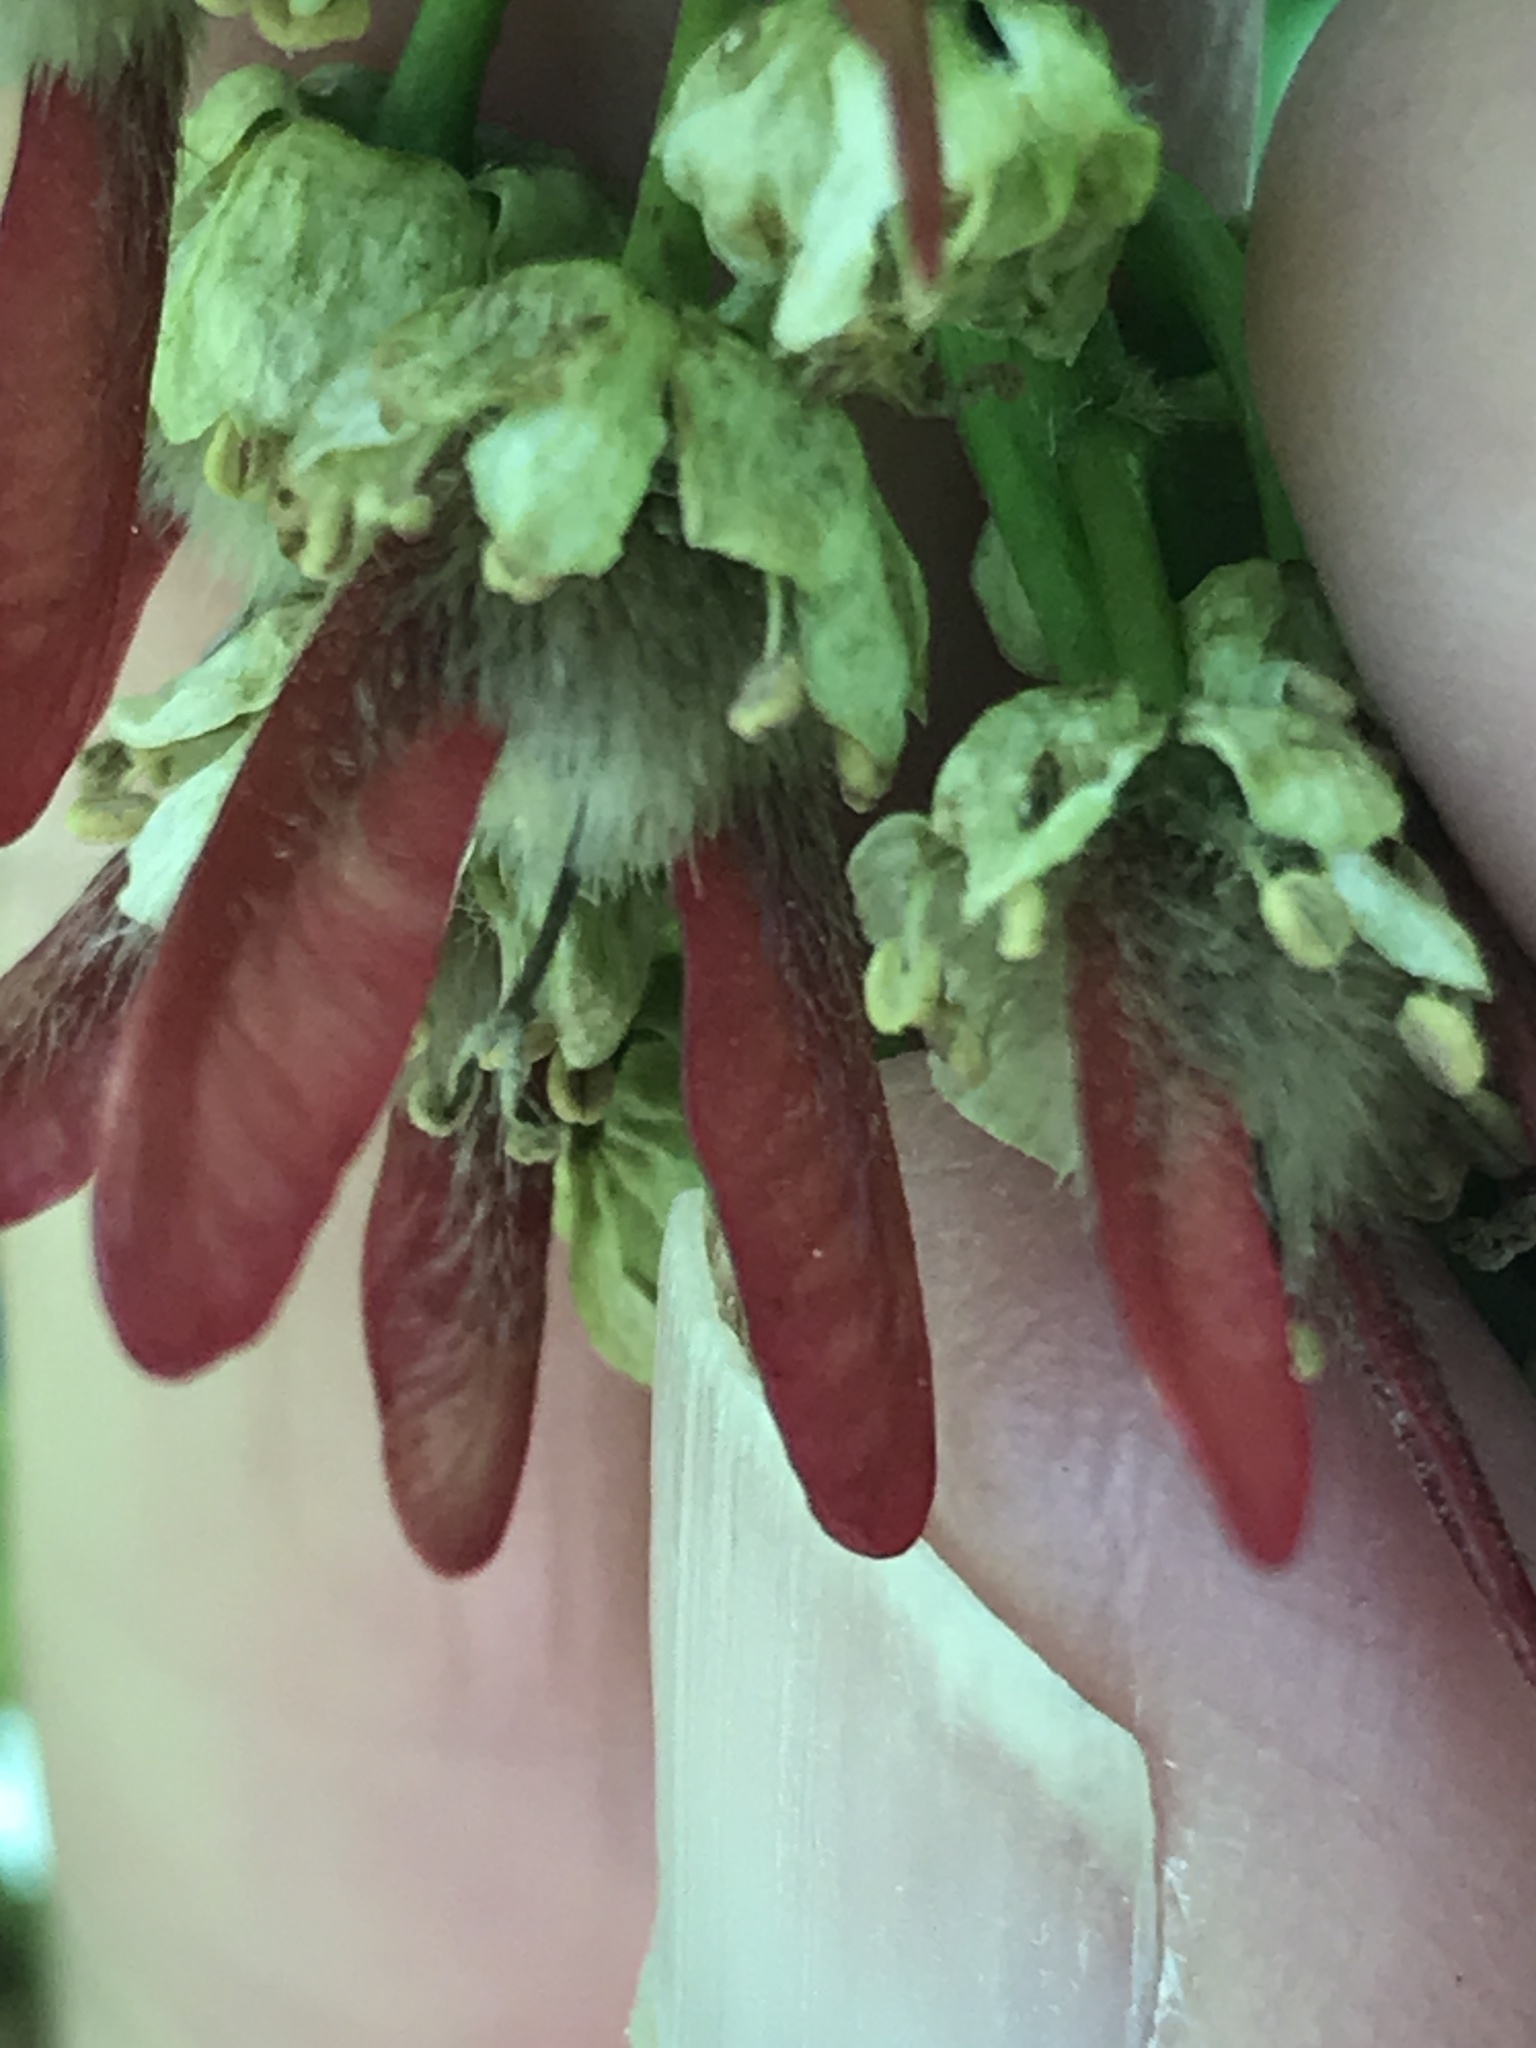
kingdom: Plantae
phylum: Tracheophyta
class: Magnoliopsida
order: Sapindales
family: Sapindaceae
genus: Acer
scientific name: Acer macrophyllum
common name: Oregon maple
